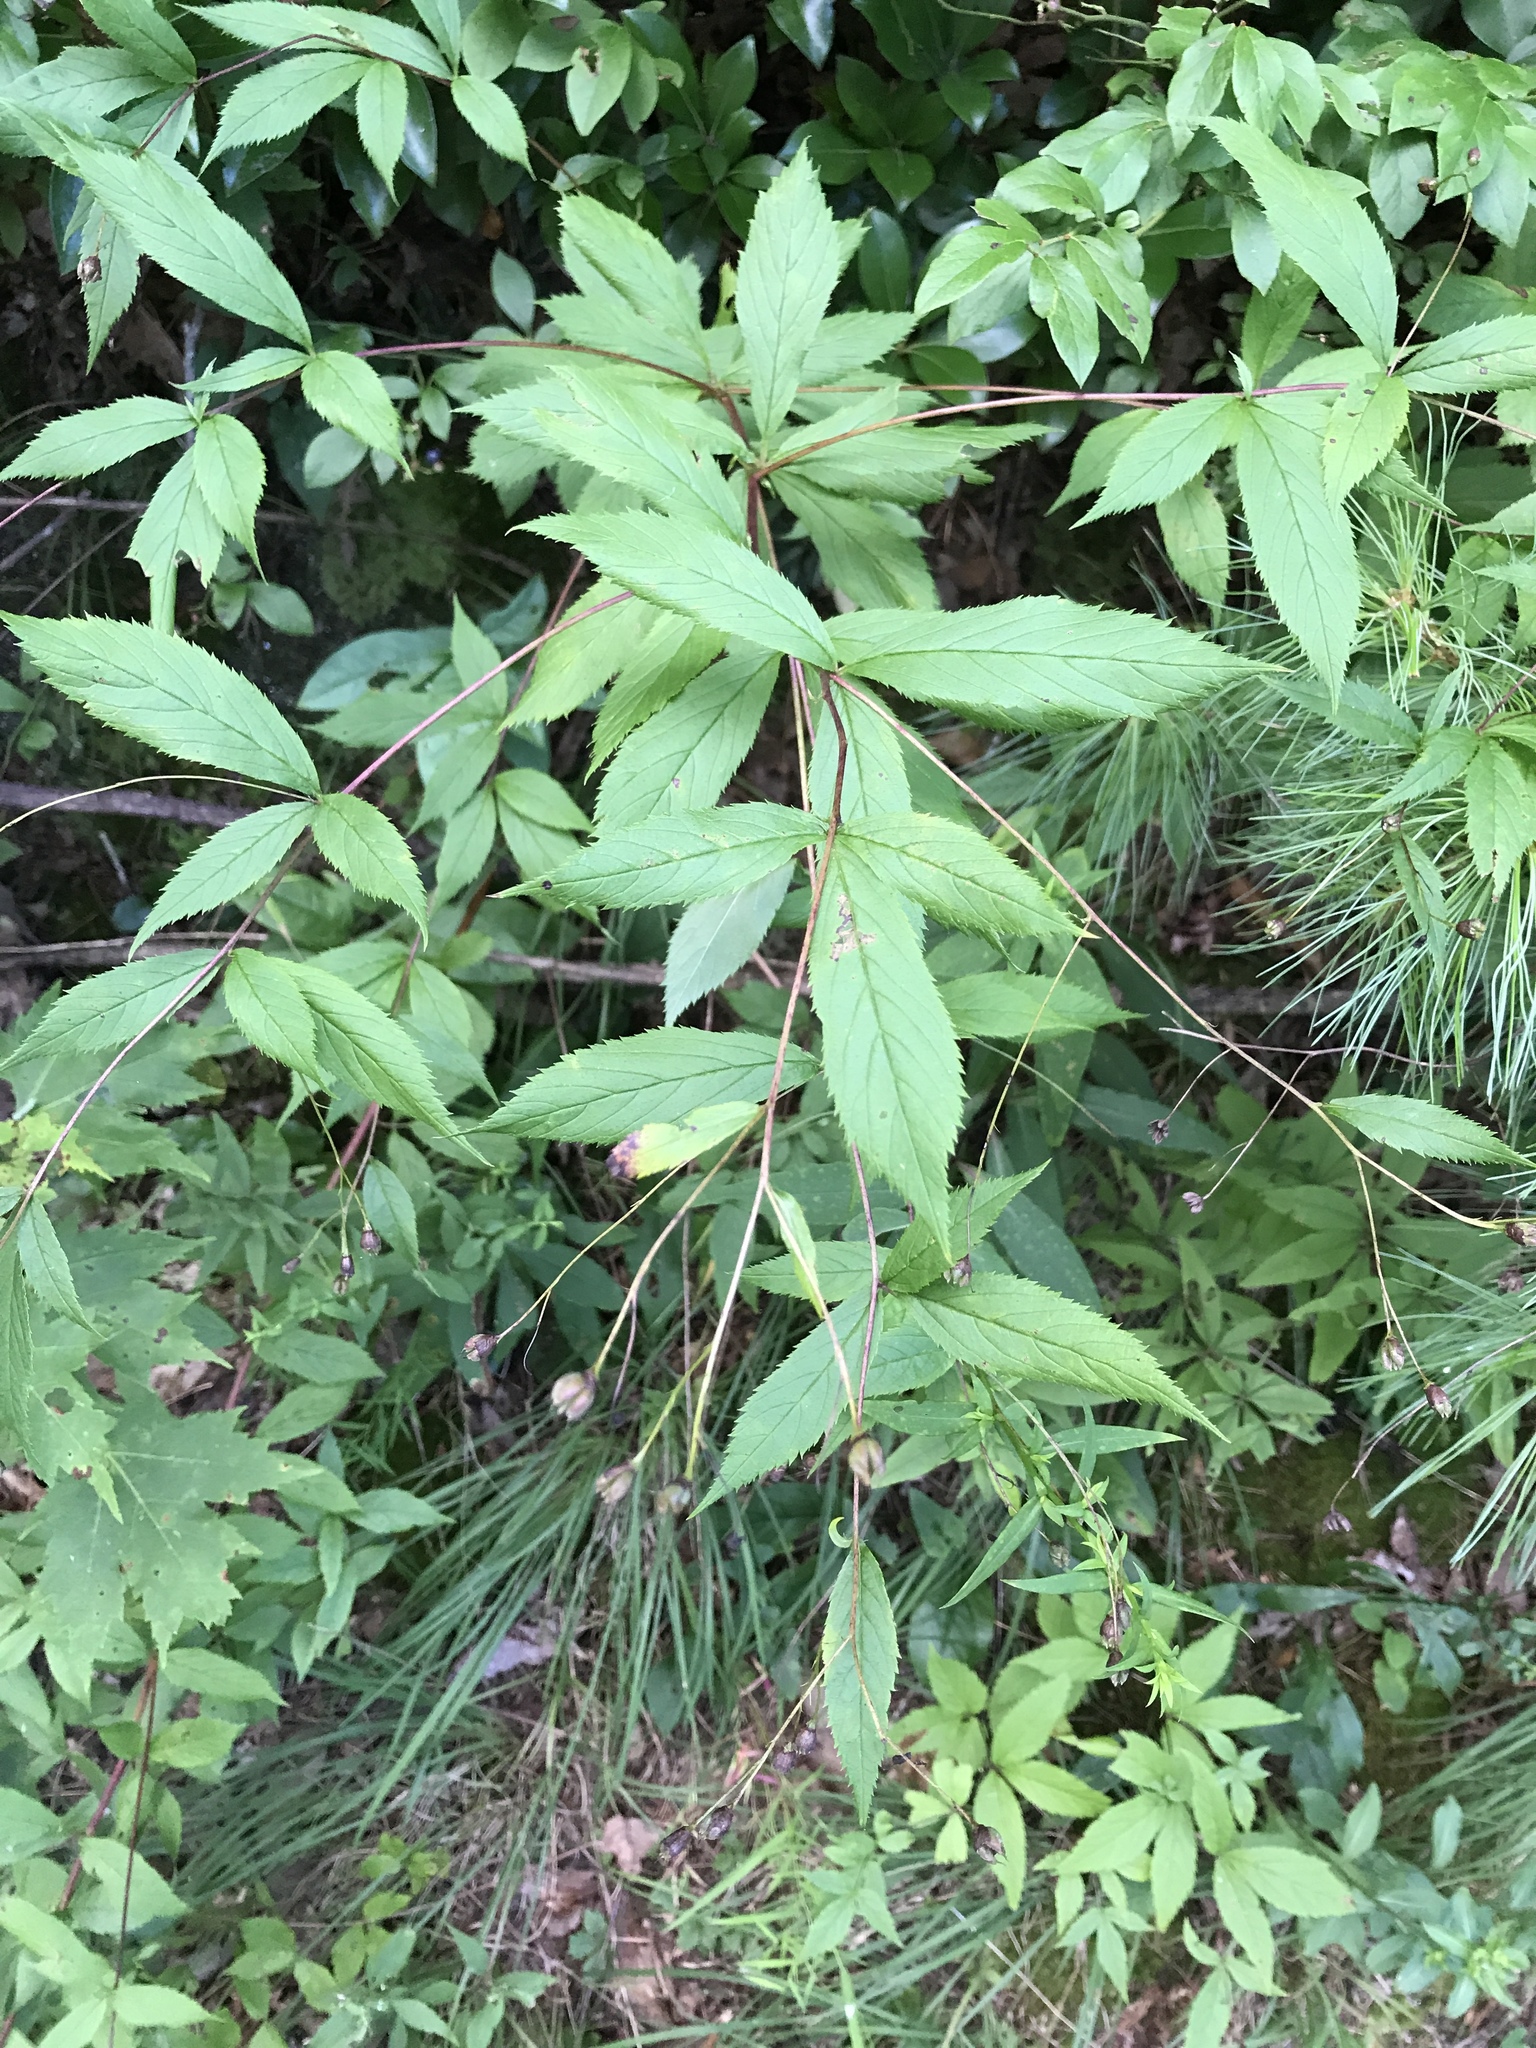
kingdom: Plantae
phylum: Tracheophyta
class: Magnoliopsida
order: Rosales
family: Rosaceae
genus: Gillenia
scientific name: Gillenia trifoliata
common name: Bowman's-root
